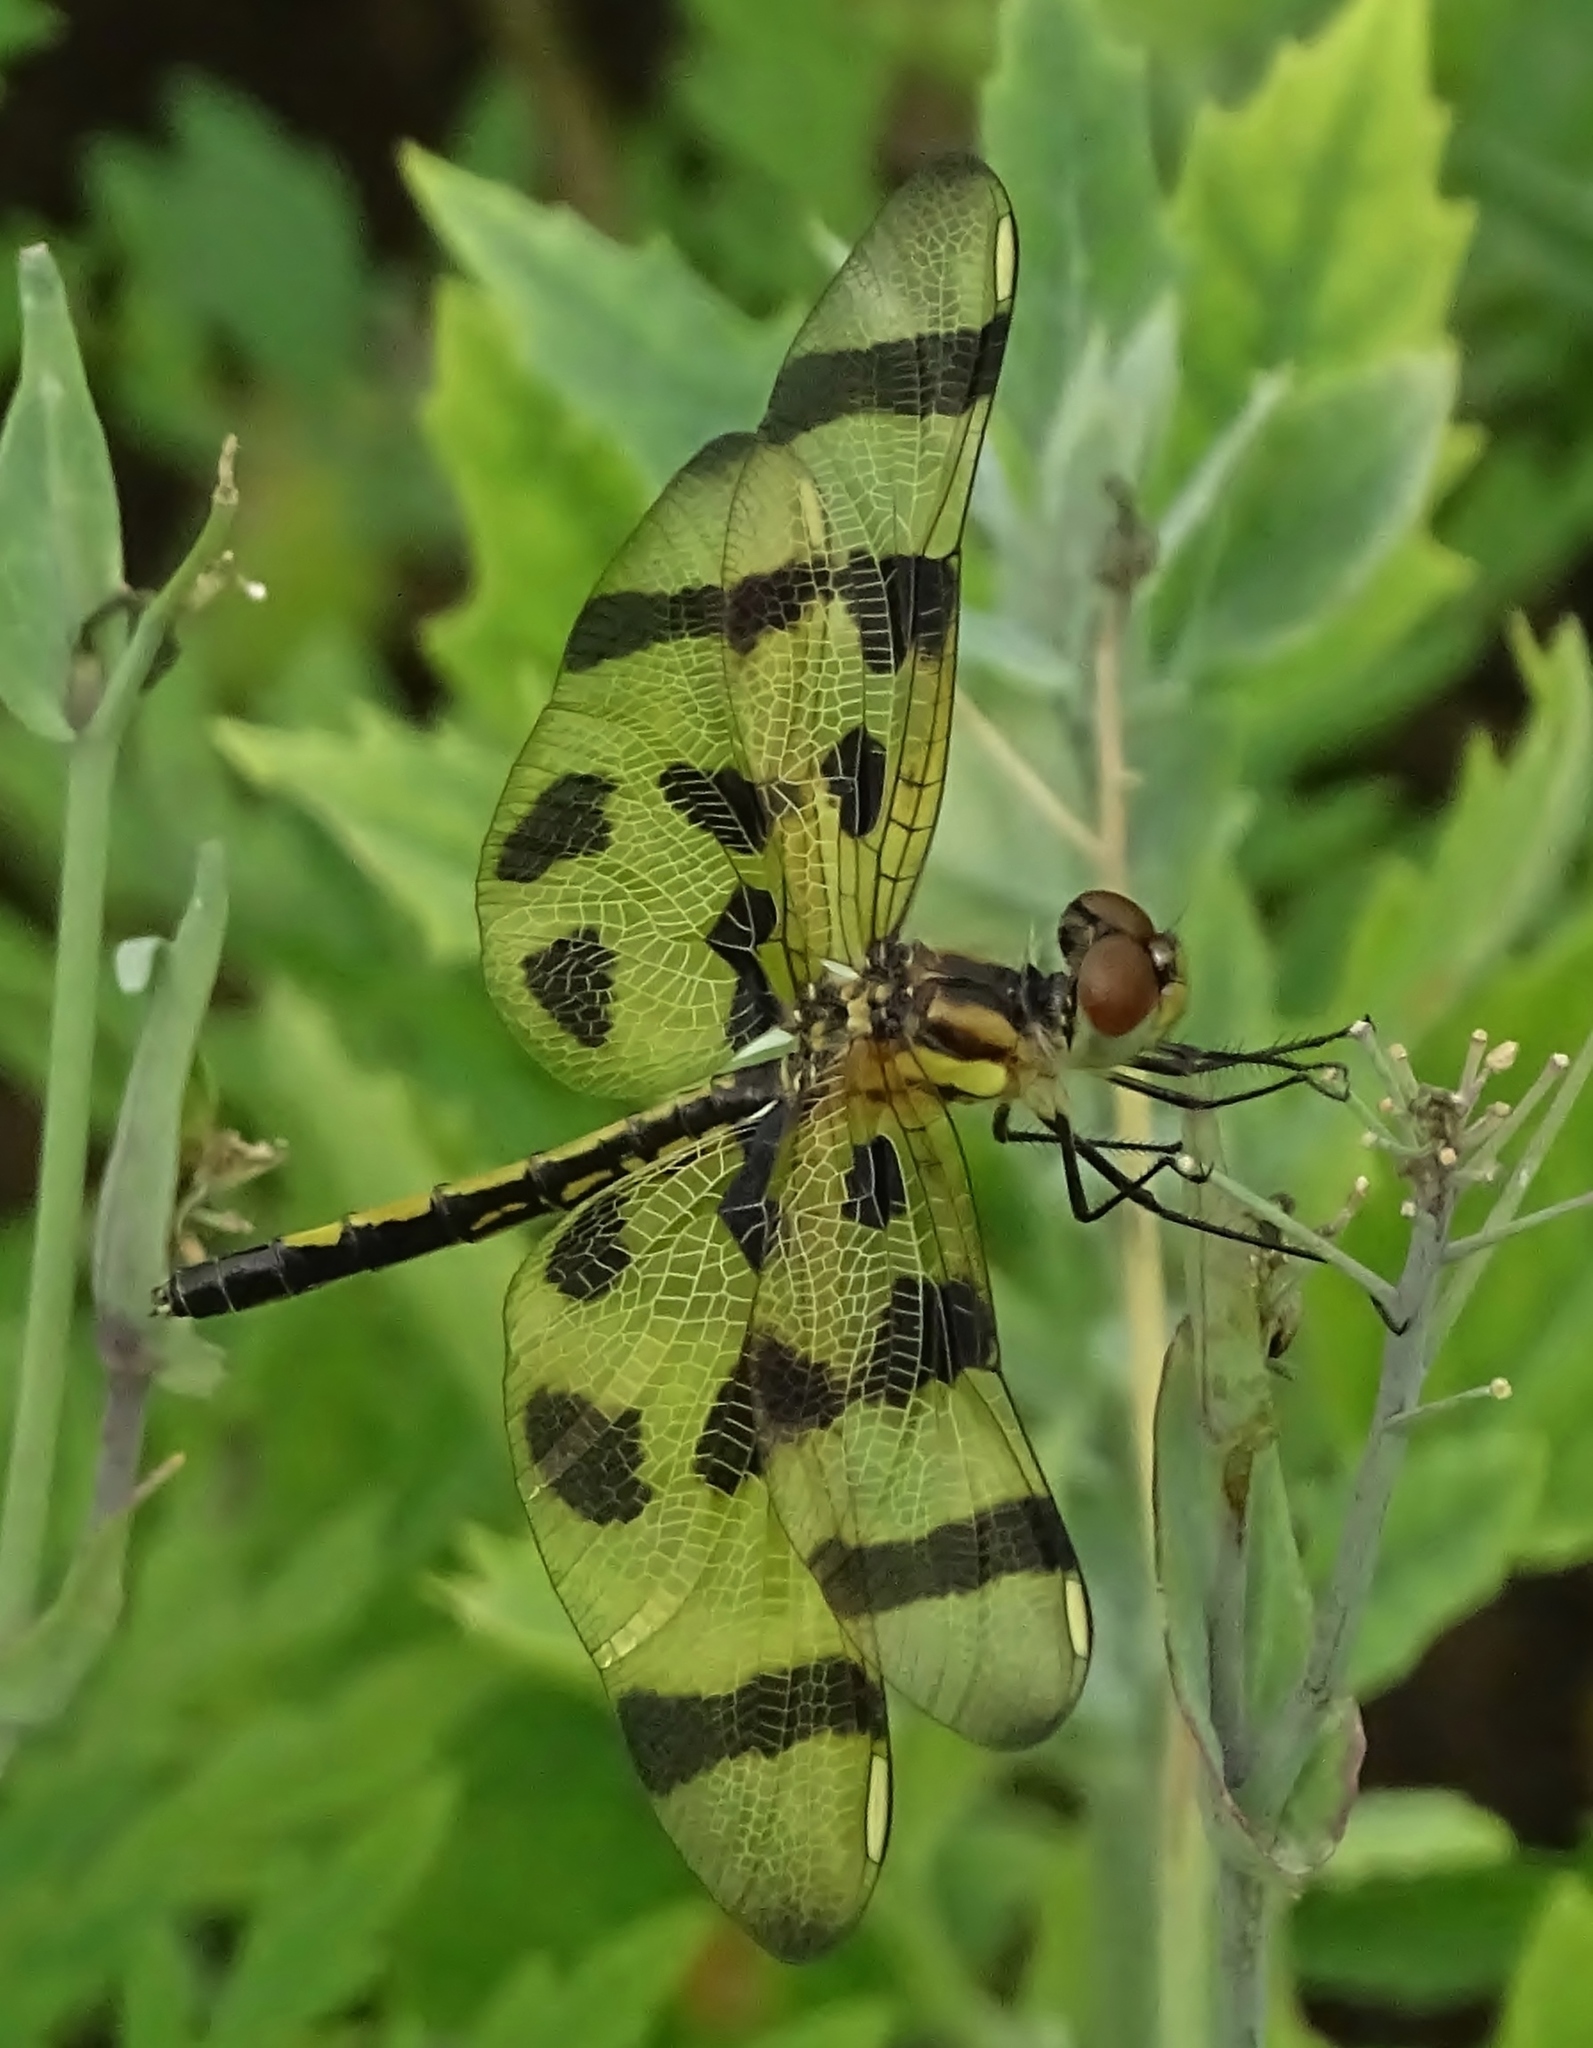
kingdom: Animalia
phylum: Arthropoda
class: Insecta
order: Odonata
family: Libellulidae
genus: Celithemis
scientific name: Celithemis eponina
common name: Halloween pennant
